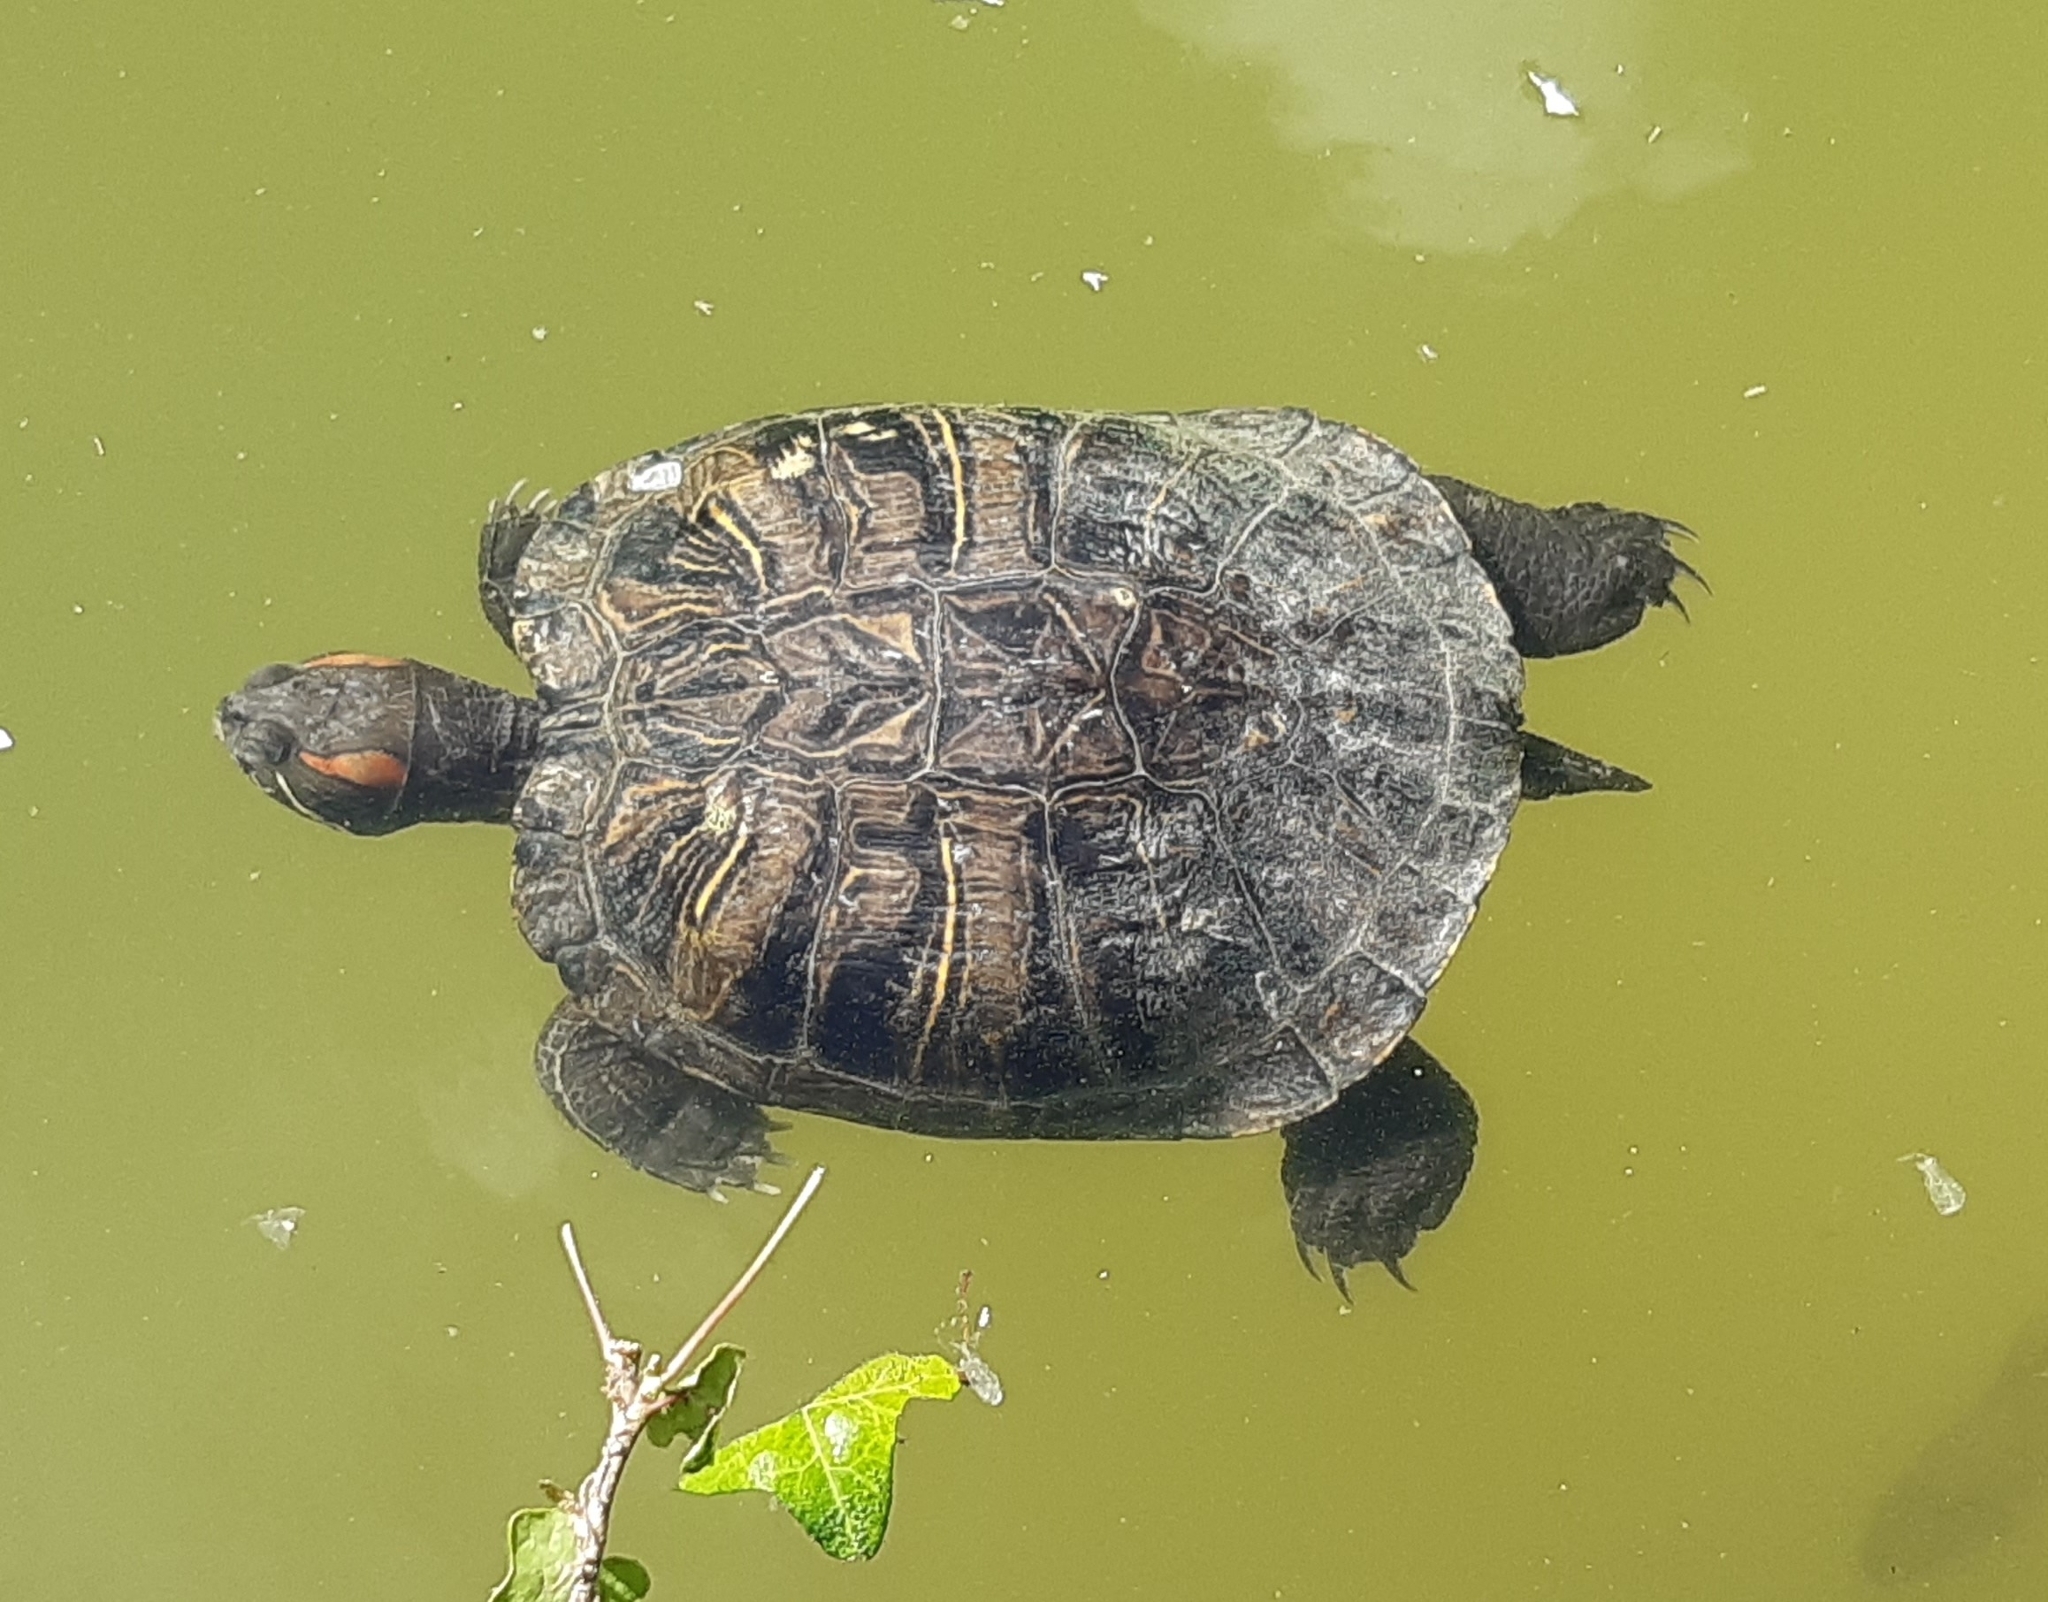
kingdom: Animalia
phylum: Chordata
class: Testudines
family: Emydidae
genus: Trachemys
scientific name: Trachemys scripta
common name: Slider
